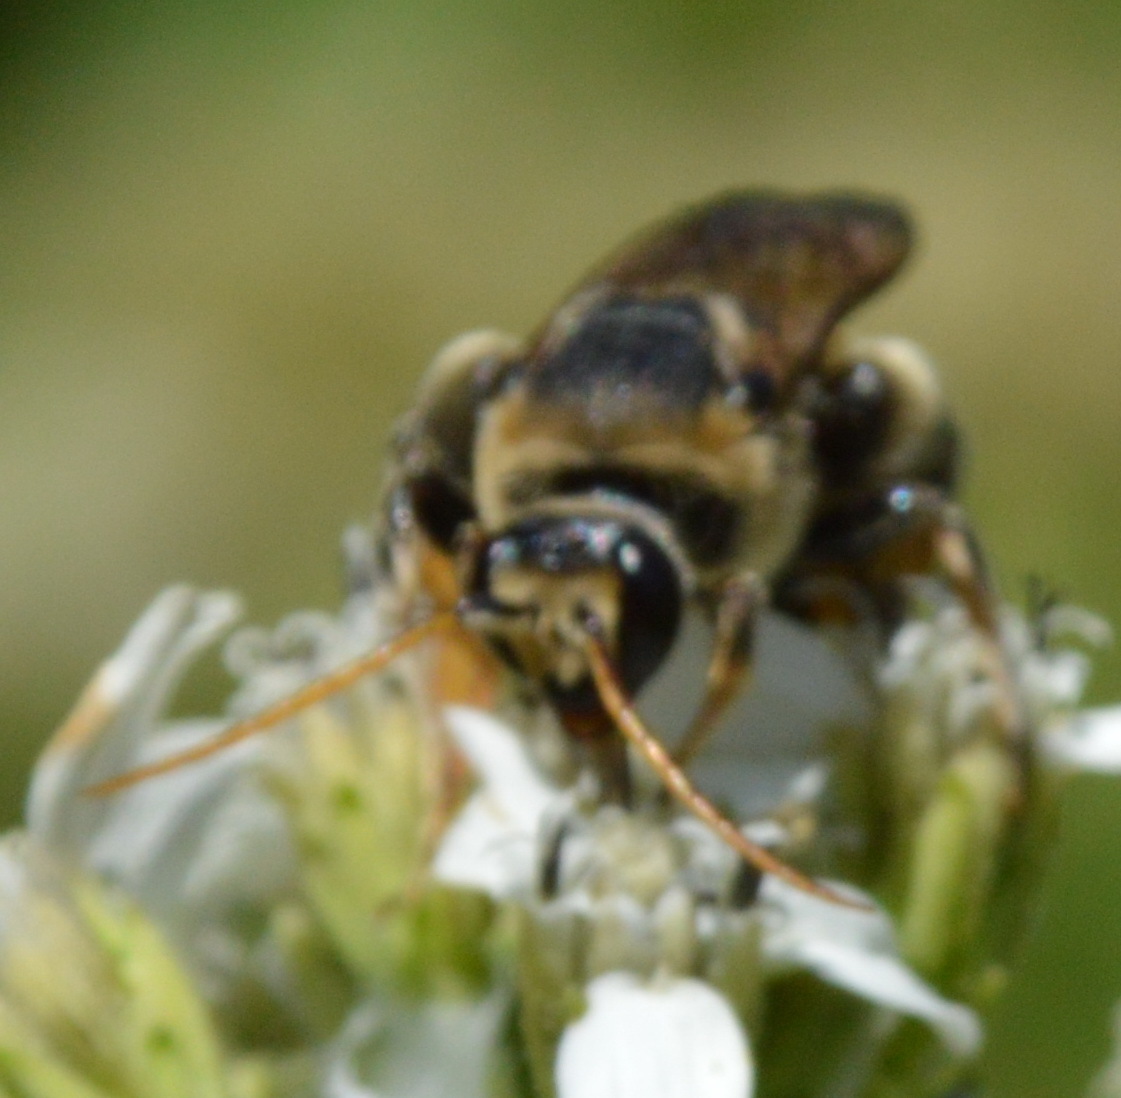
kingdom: Animalia
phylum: Arthropoda
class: Insecta
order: Hymenoptera
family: Halictidae
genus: Nomia
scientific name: Nomia nortoni
